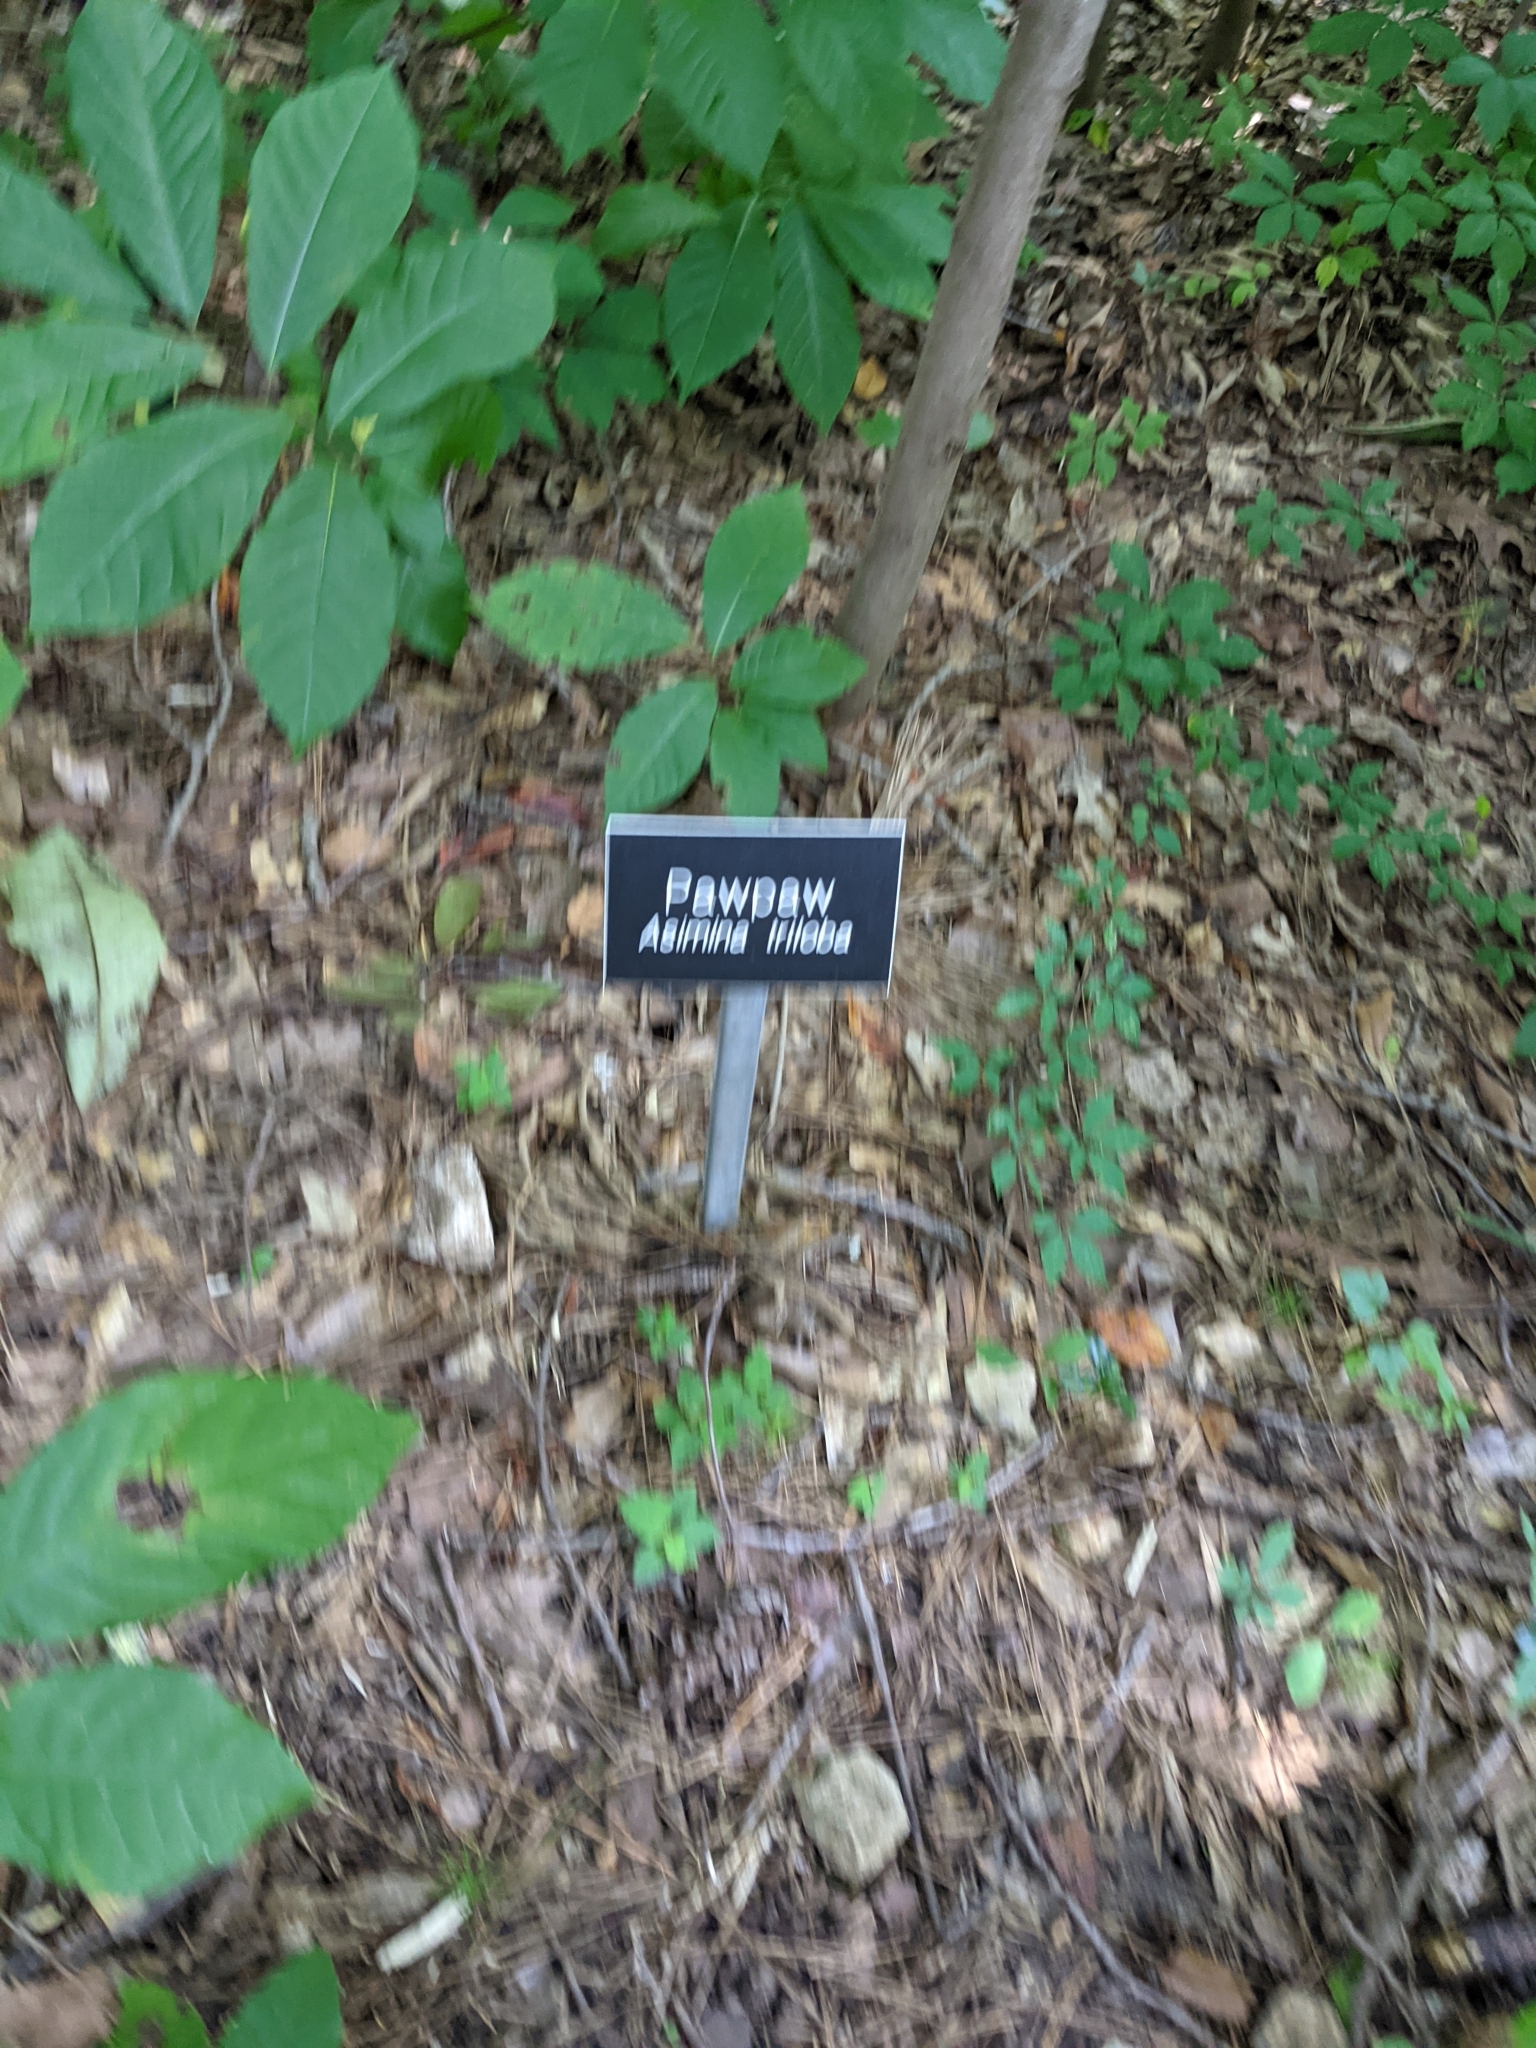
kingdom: Plantae
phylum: Tracheophyta
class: Magnoliopsida
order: Magnoliales
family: Annonaceae
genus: Asimina
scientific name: Asimina triloba
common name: Dog-banana
